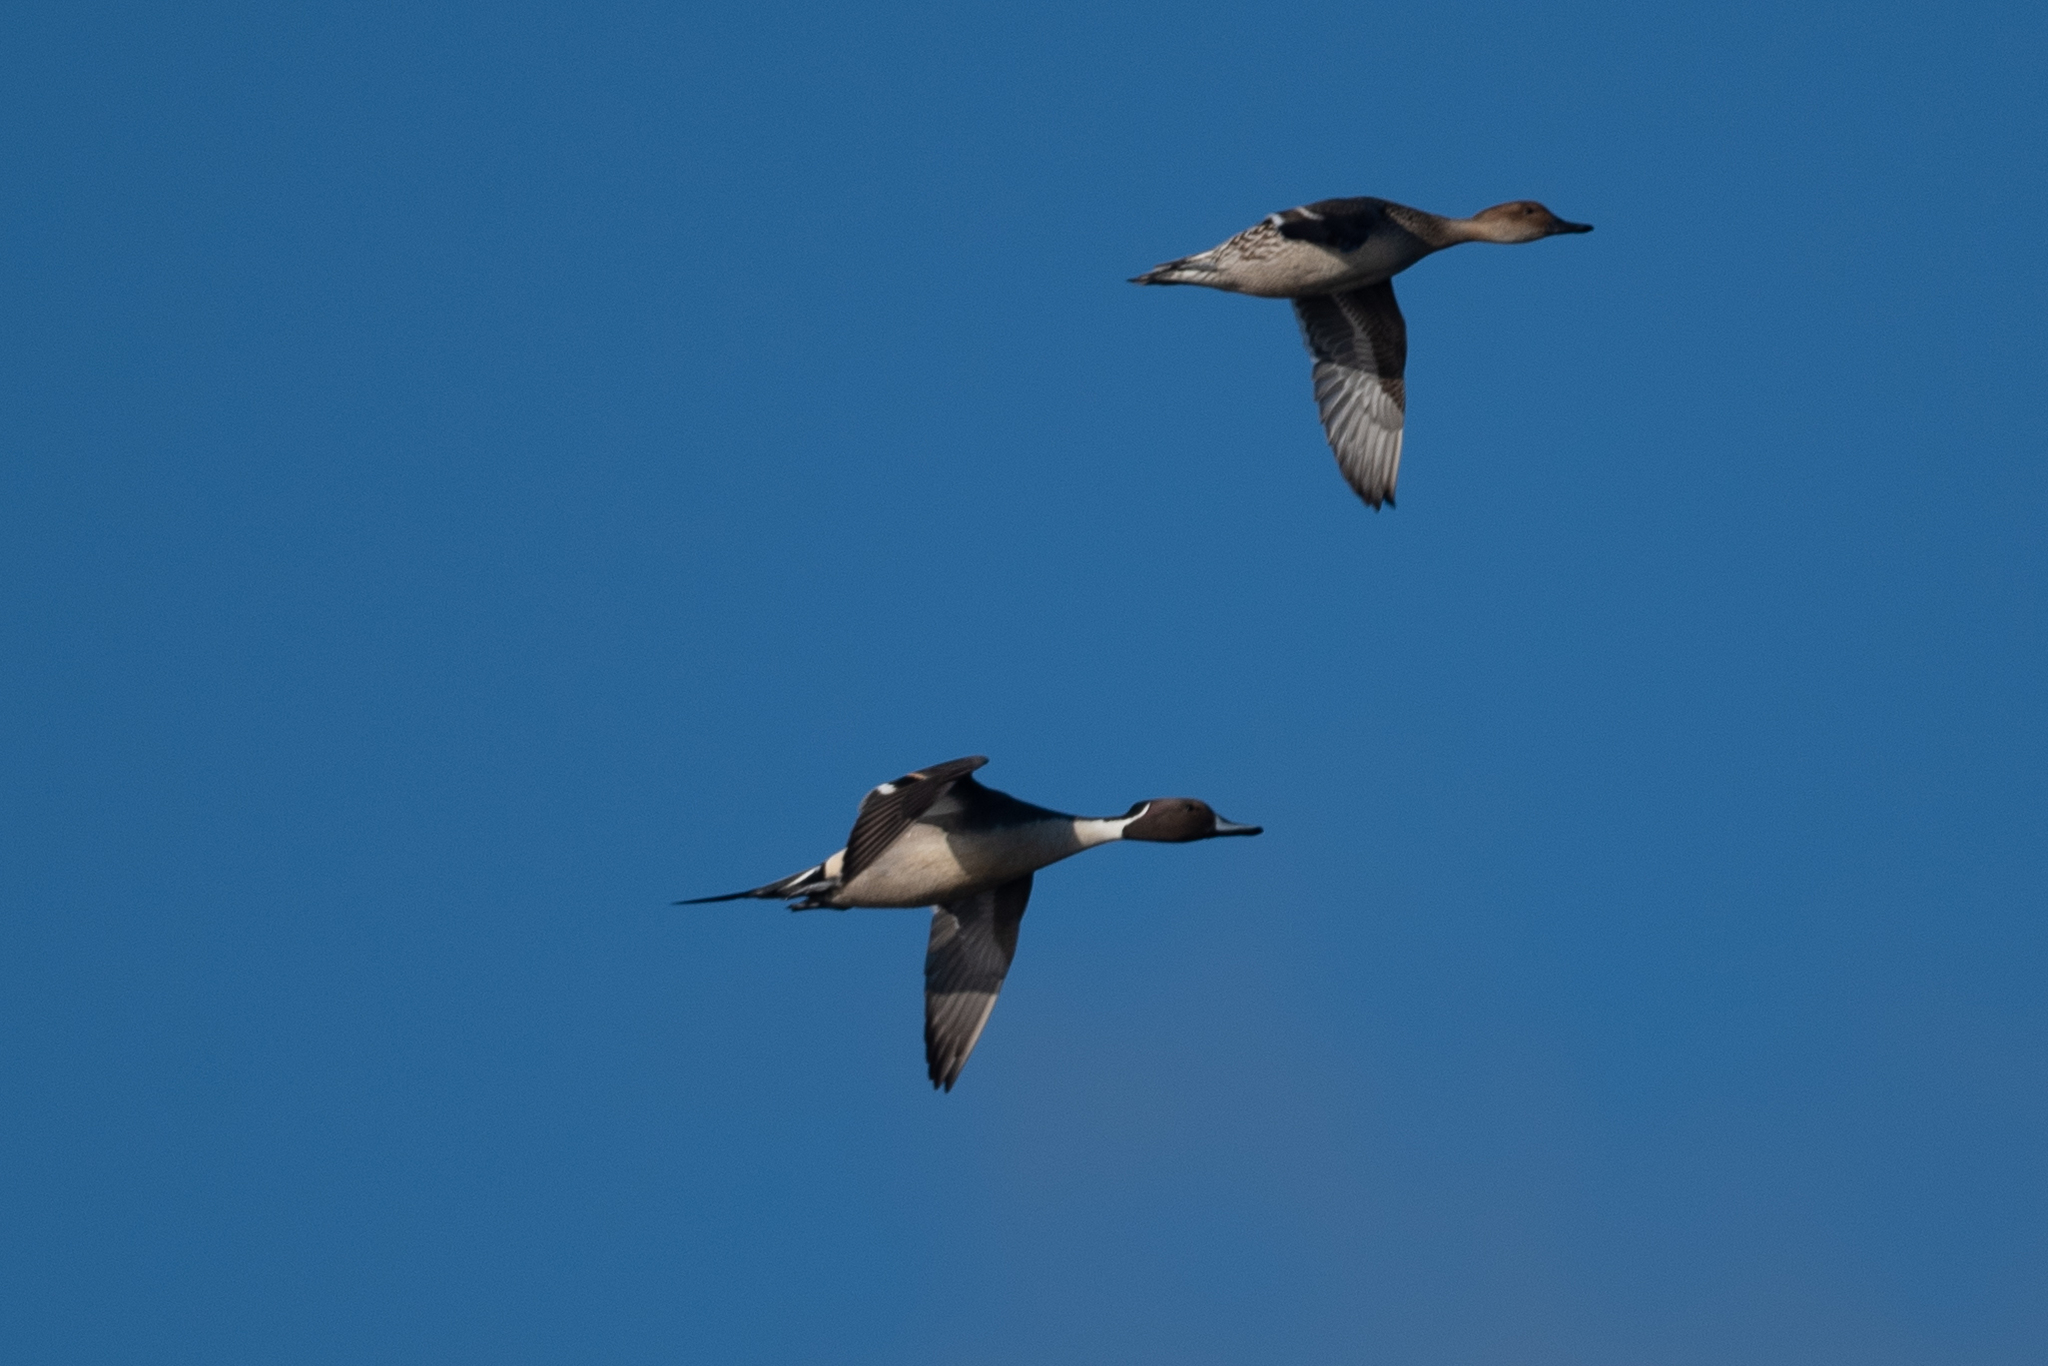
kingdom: Animalia
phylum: Chordata
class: Aves
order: Anseriformes
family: Anatidae
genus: Anas
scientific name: Anas acuta
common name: Northern pintail
